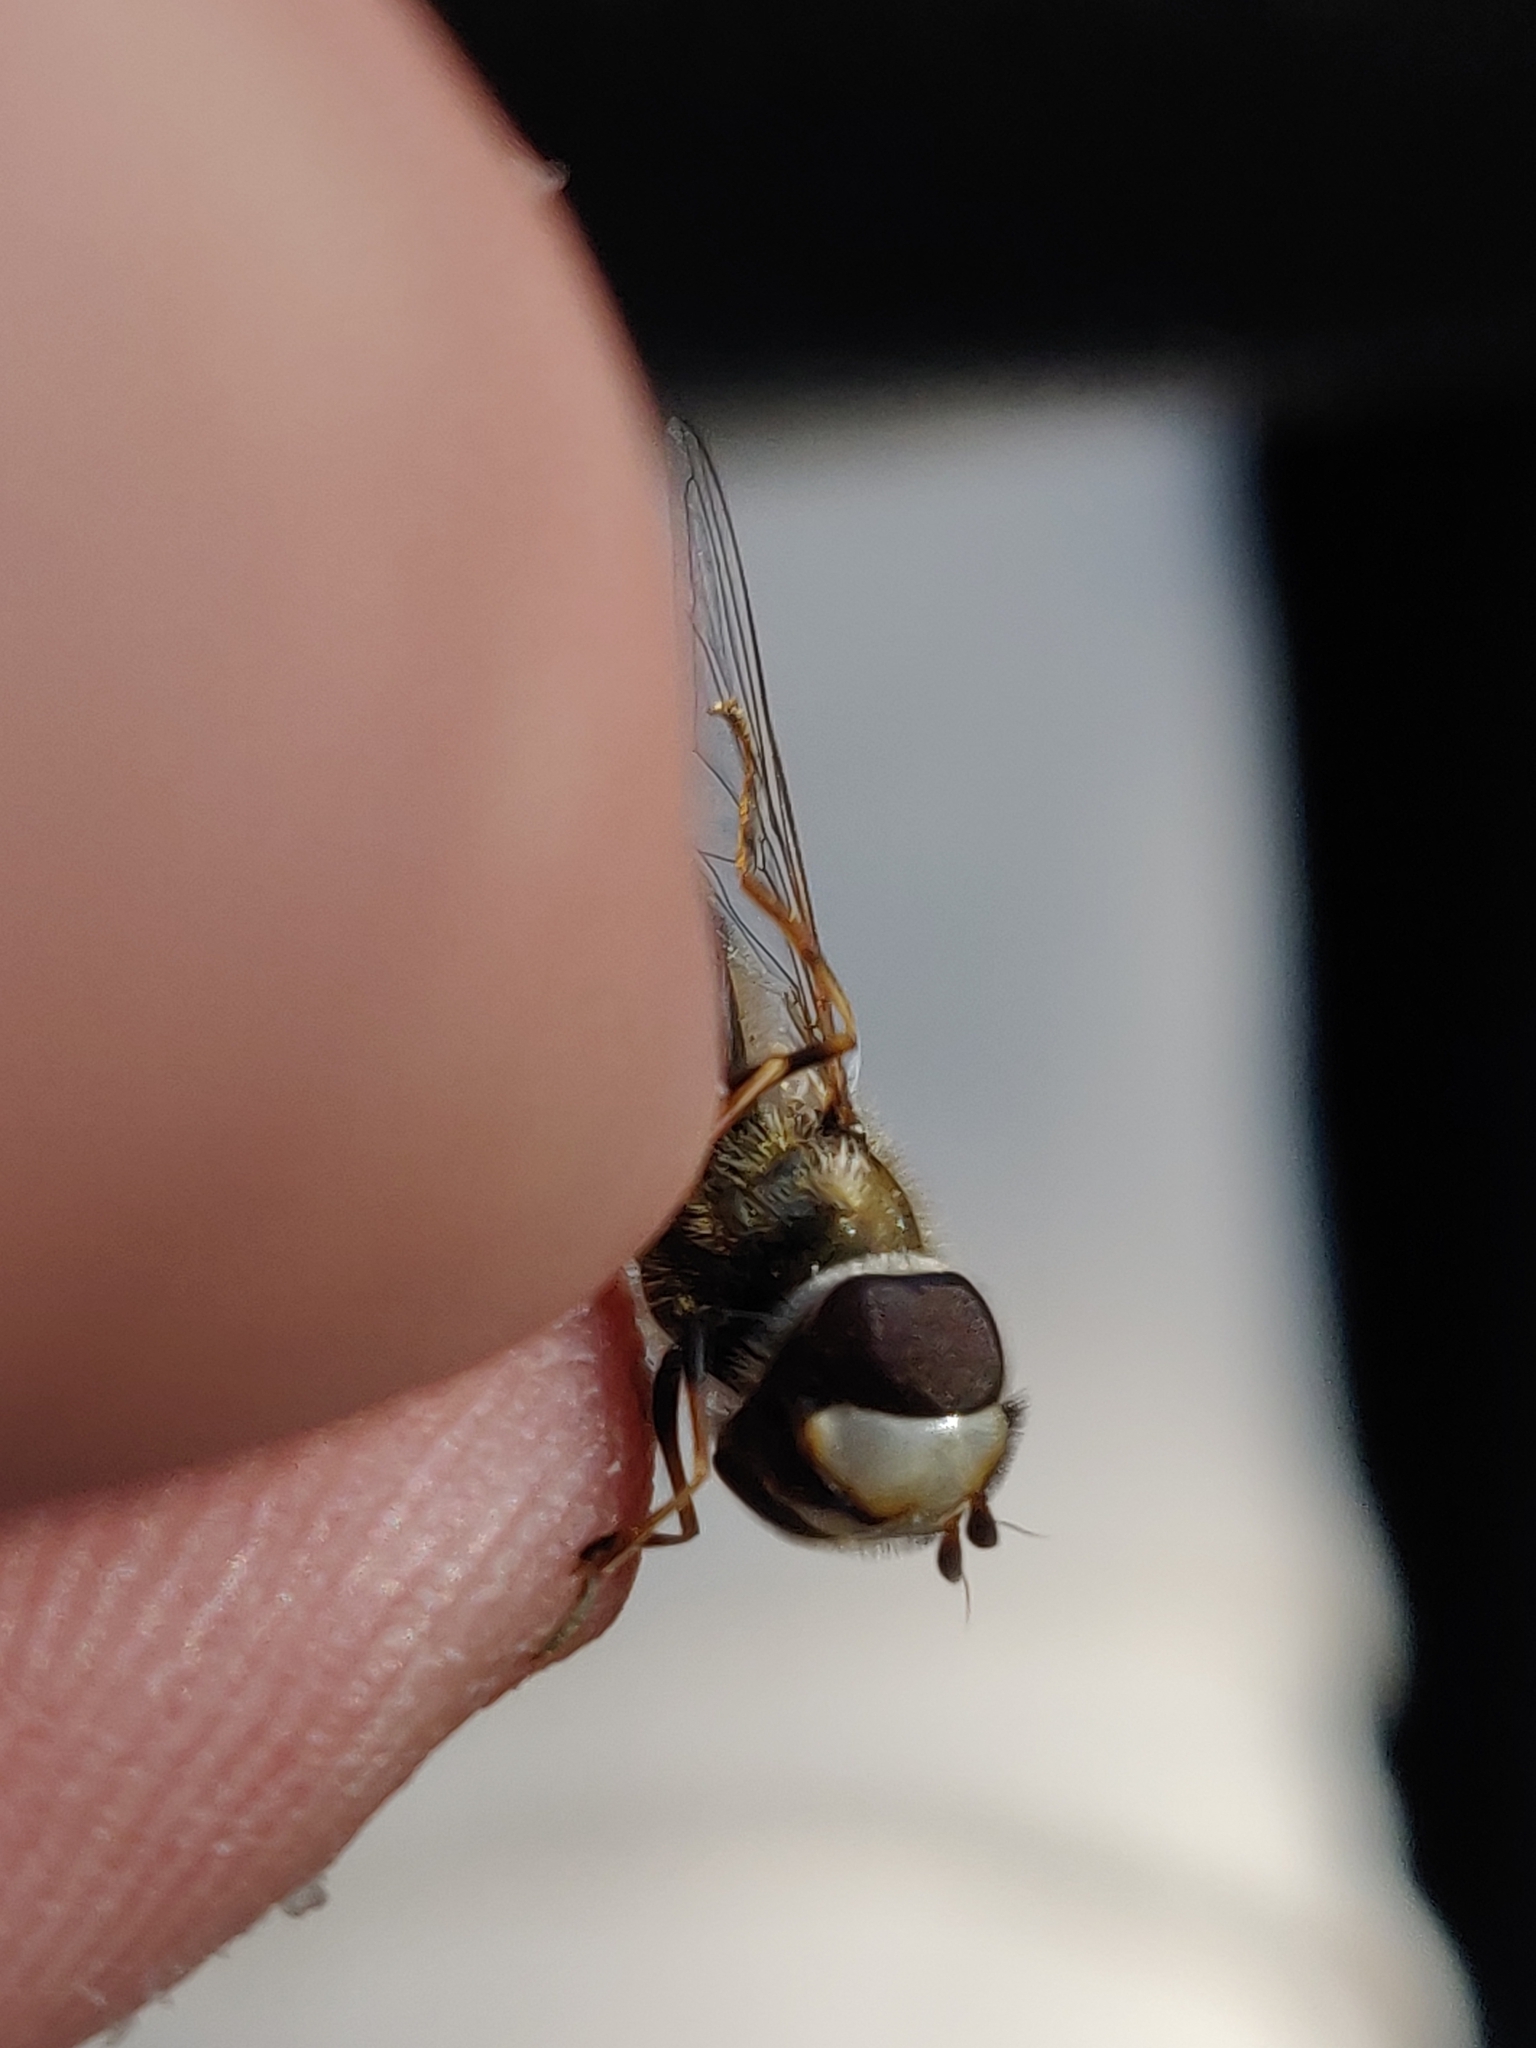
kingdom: Animalia
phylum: Arthropoda
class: Insecta
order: Diptera
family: Syrphidae
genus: Scaeva
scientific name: Scaeva pyrastri
